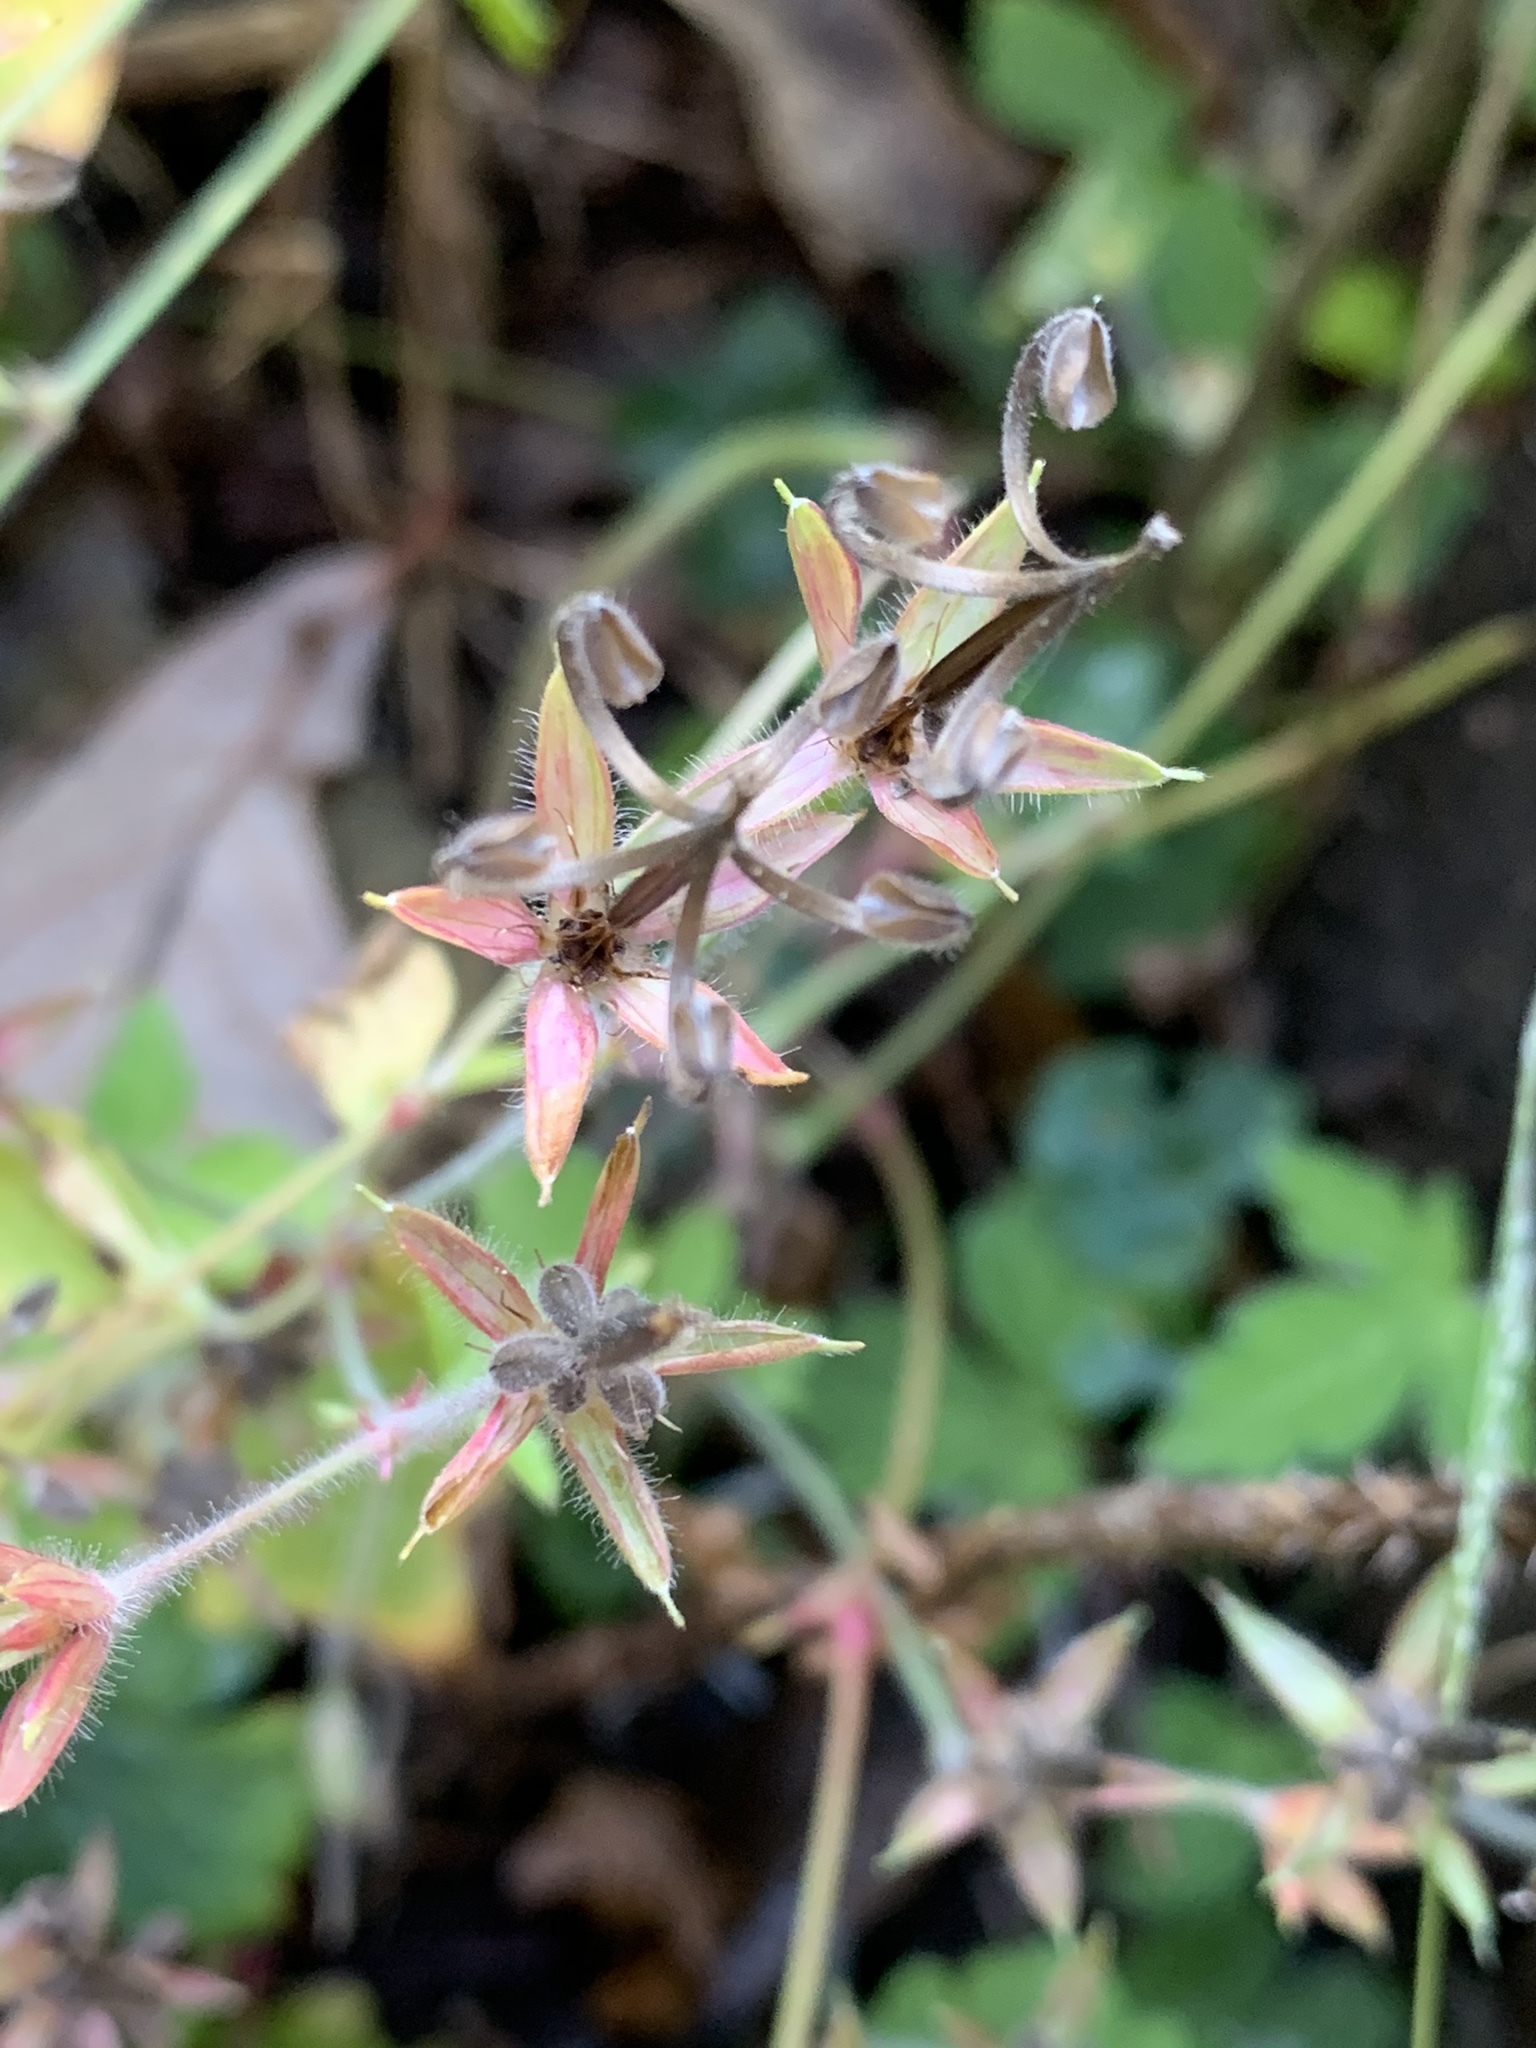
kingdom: Plantae
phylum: Tracheophyta
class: Magnoliopsida
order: Geraniales
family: Geraniaceae
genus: Geranium
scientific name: Geranium thunbergii
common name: Dewdrop crane's-bill
